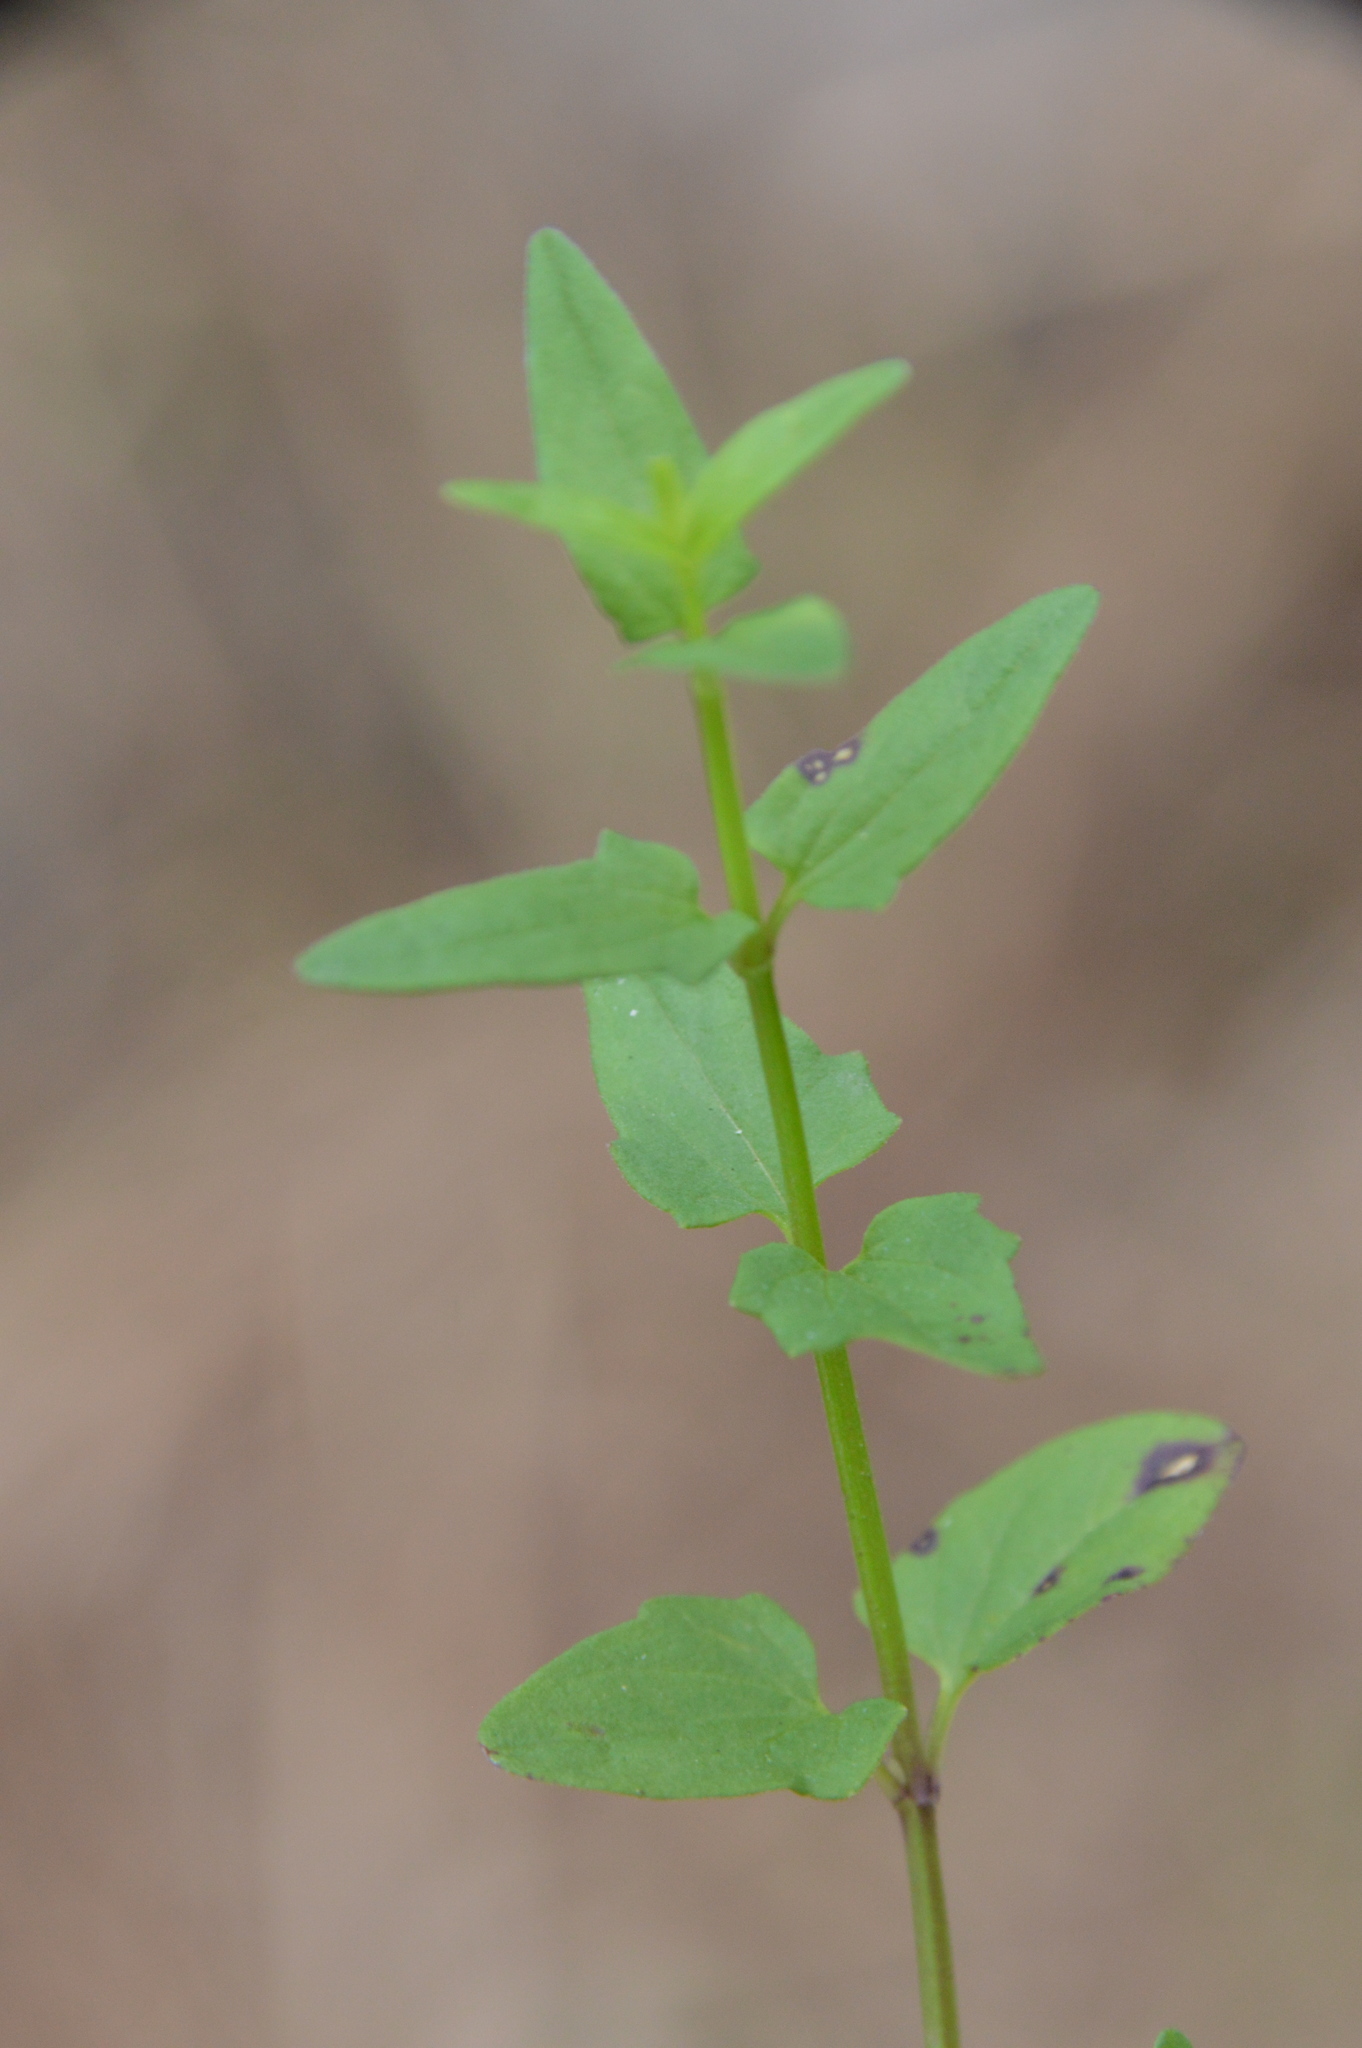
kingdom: Plantae
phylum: Tracheophyta
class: Magnoliopsida
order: Lamiales
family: Lamiaceae
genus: Scutellaria
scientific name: Scutellaria racemosa
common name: South american skullcap
